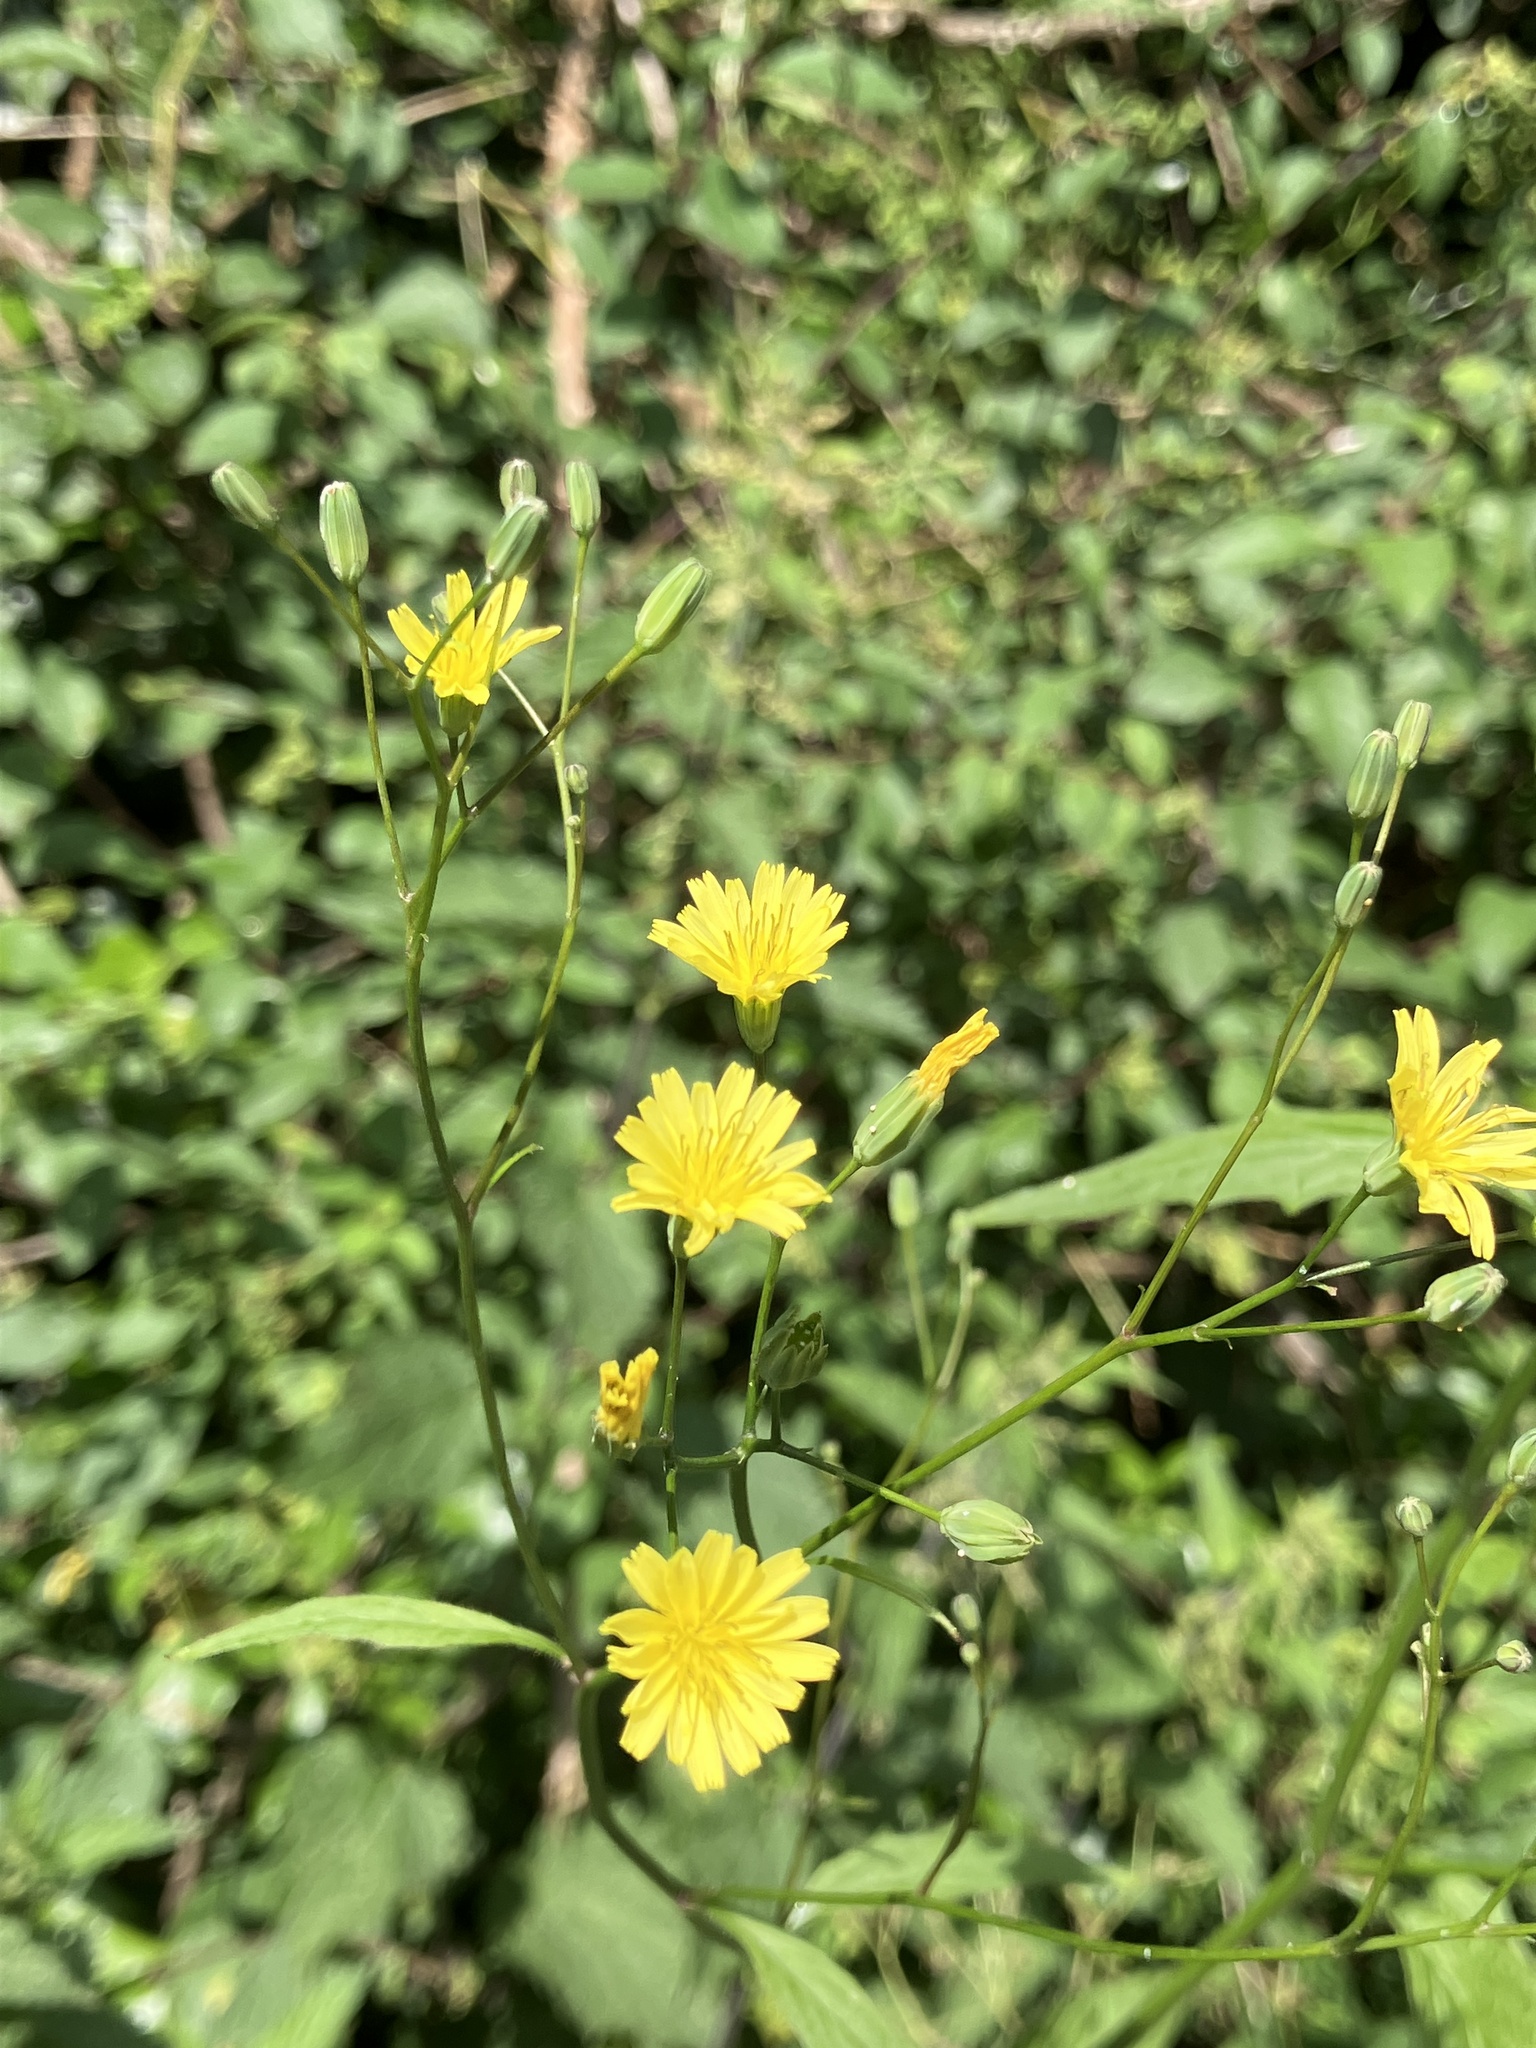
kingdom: Plantae
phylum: Tracheophyta
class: Magnoliopsida
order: Asterales
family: Asteraceae
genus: Lapsana
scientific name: Lapsana communis
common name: Nipplewort
